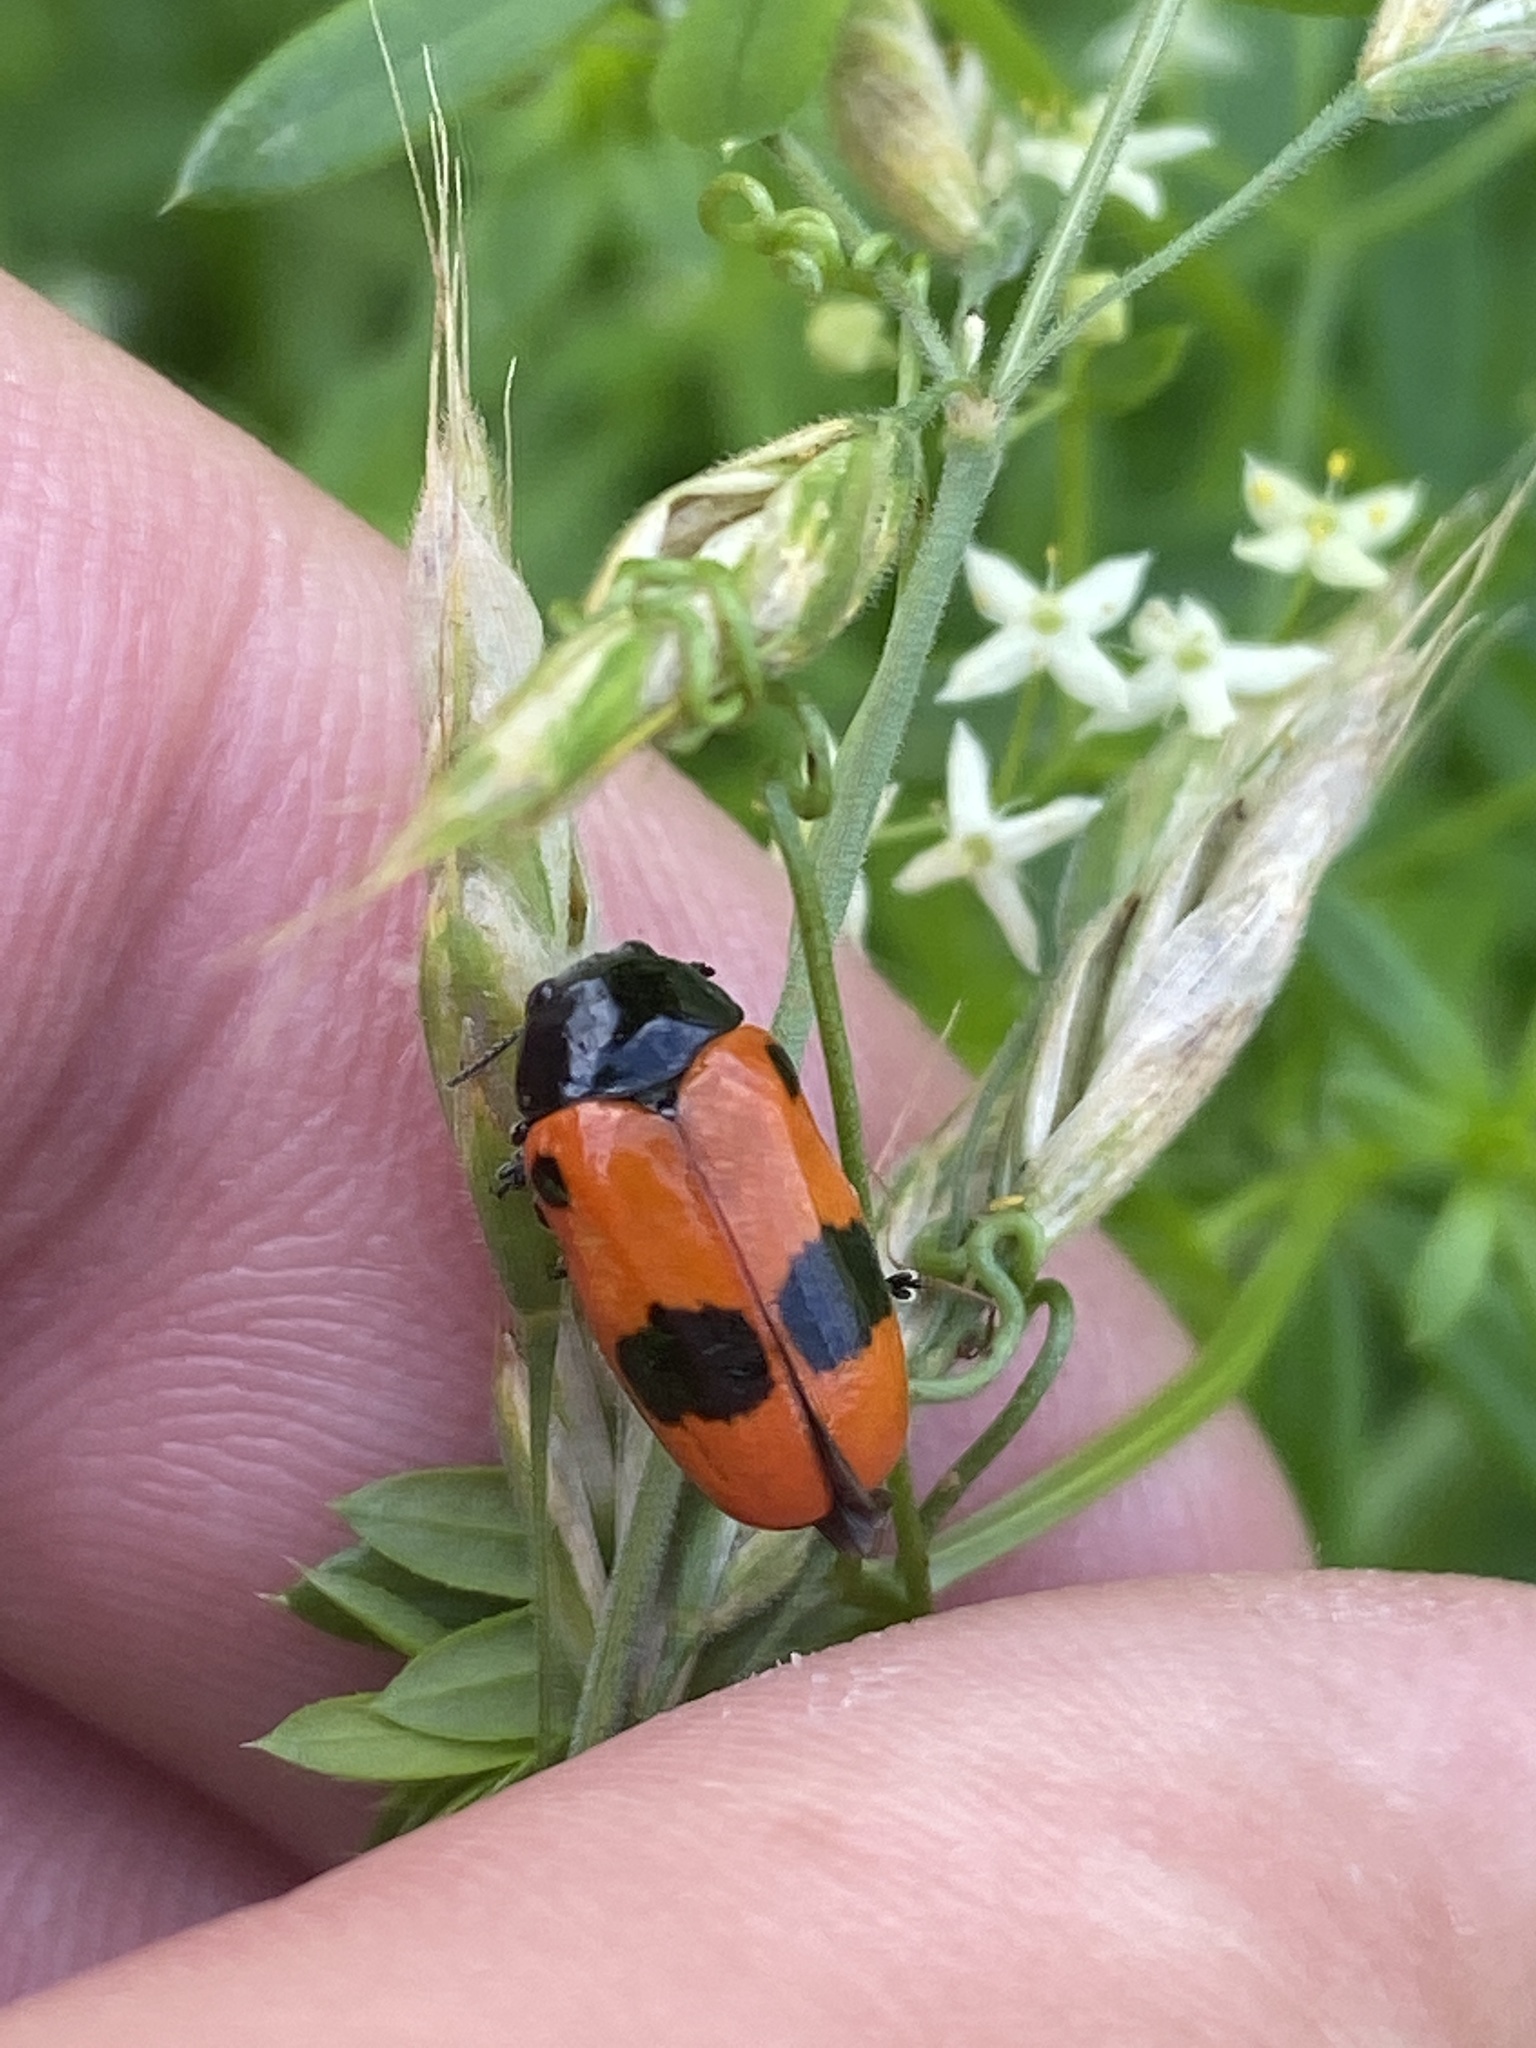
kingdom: Animalia
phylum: Arthropoda
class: Insecta
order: Coleoptera
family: Chrysomelidae
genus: Clytra
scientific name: Clytra laeviuscula
